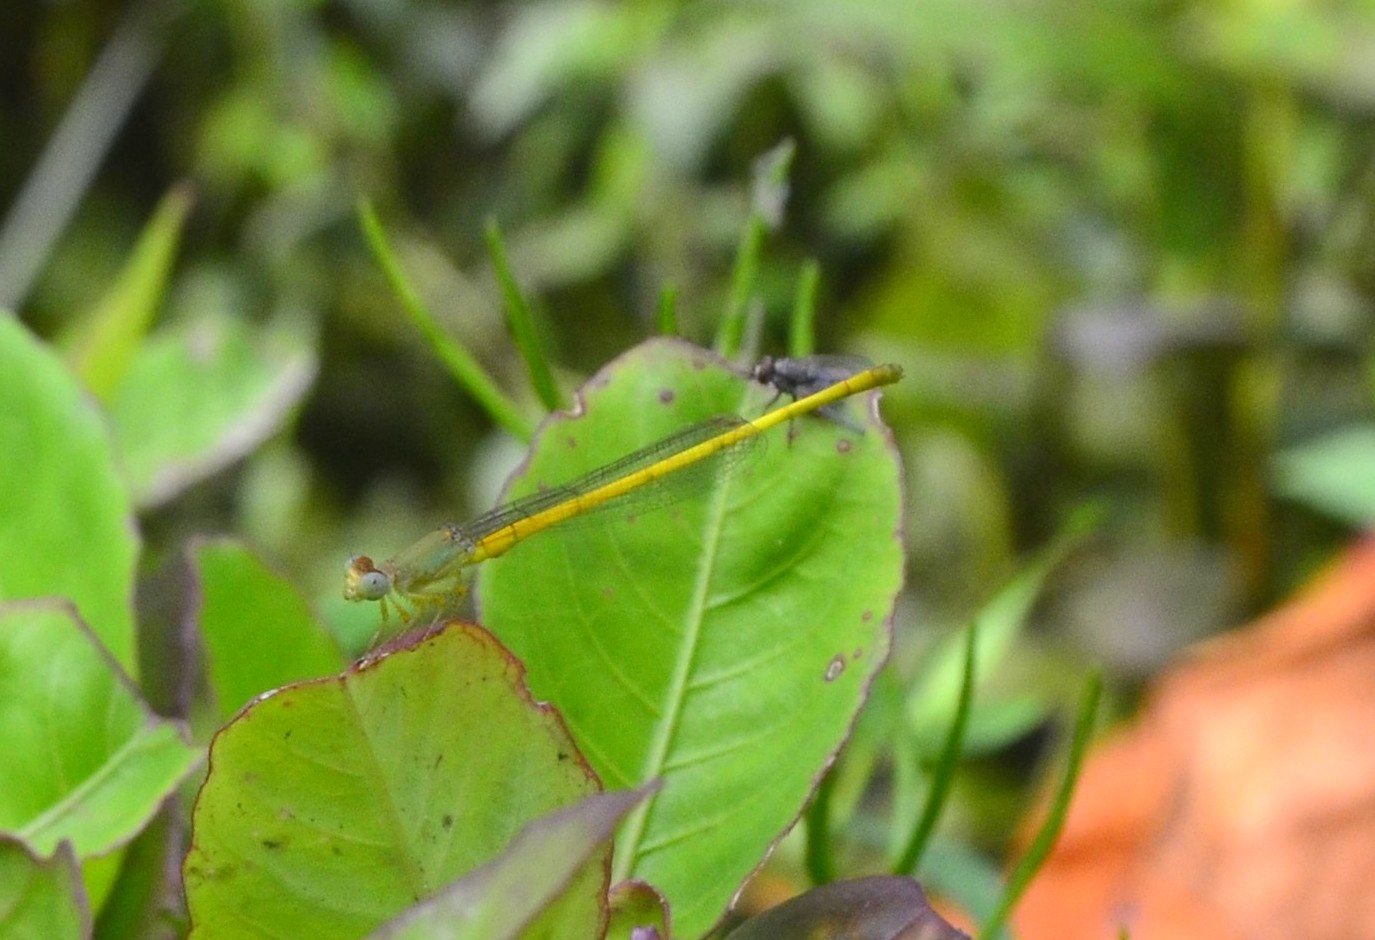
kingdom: Animalia
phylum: Arthropoda
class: Insecta
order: Odonata
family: Coenagrionidae
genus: Ceriagrion
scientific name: Ceriagrion coromandelianum
